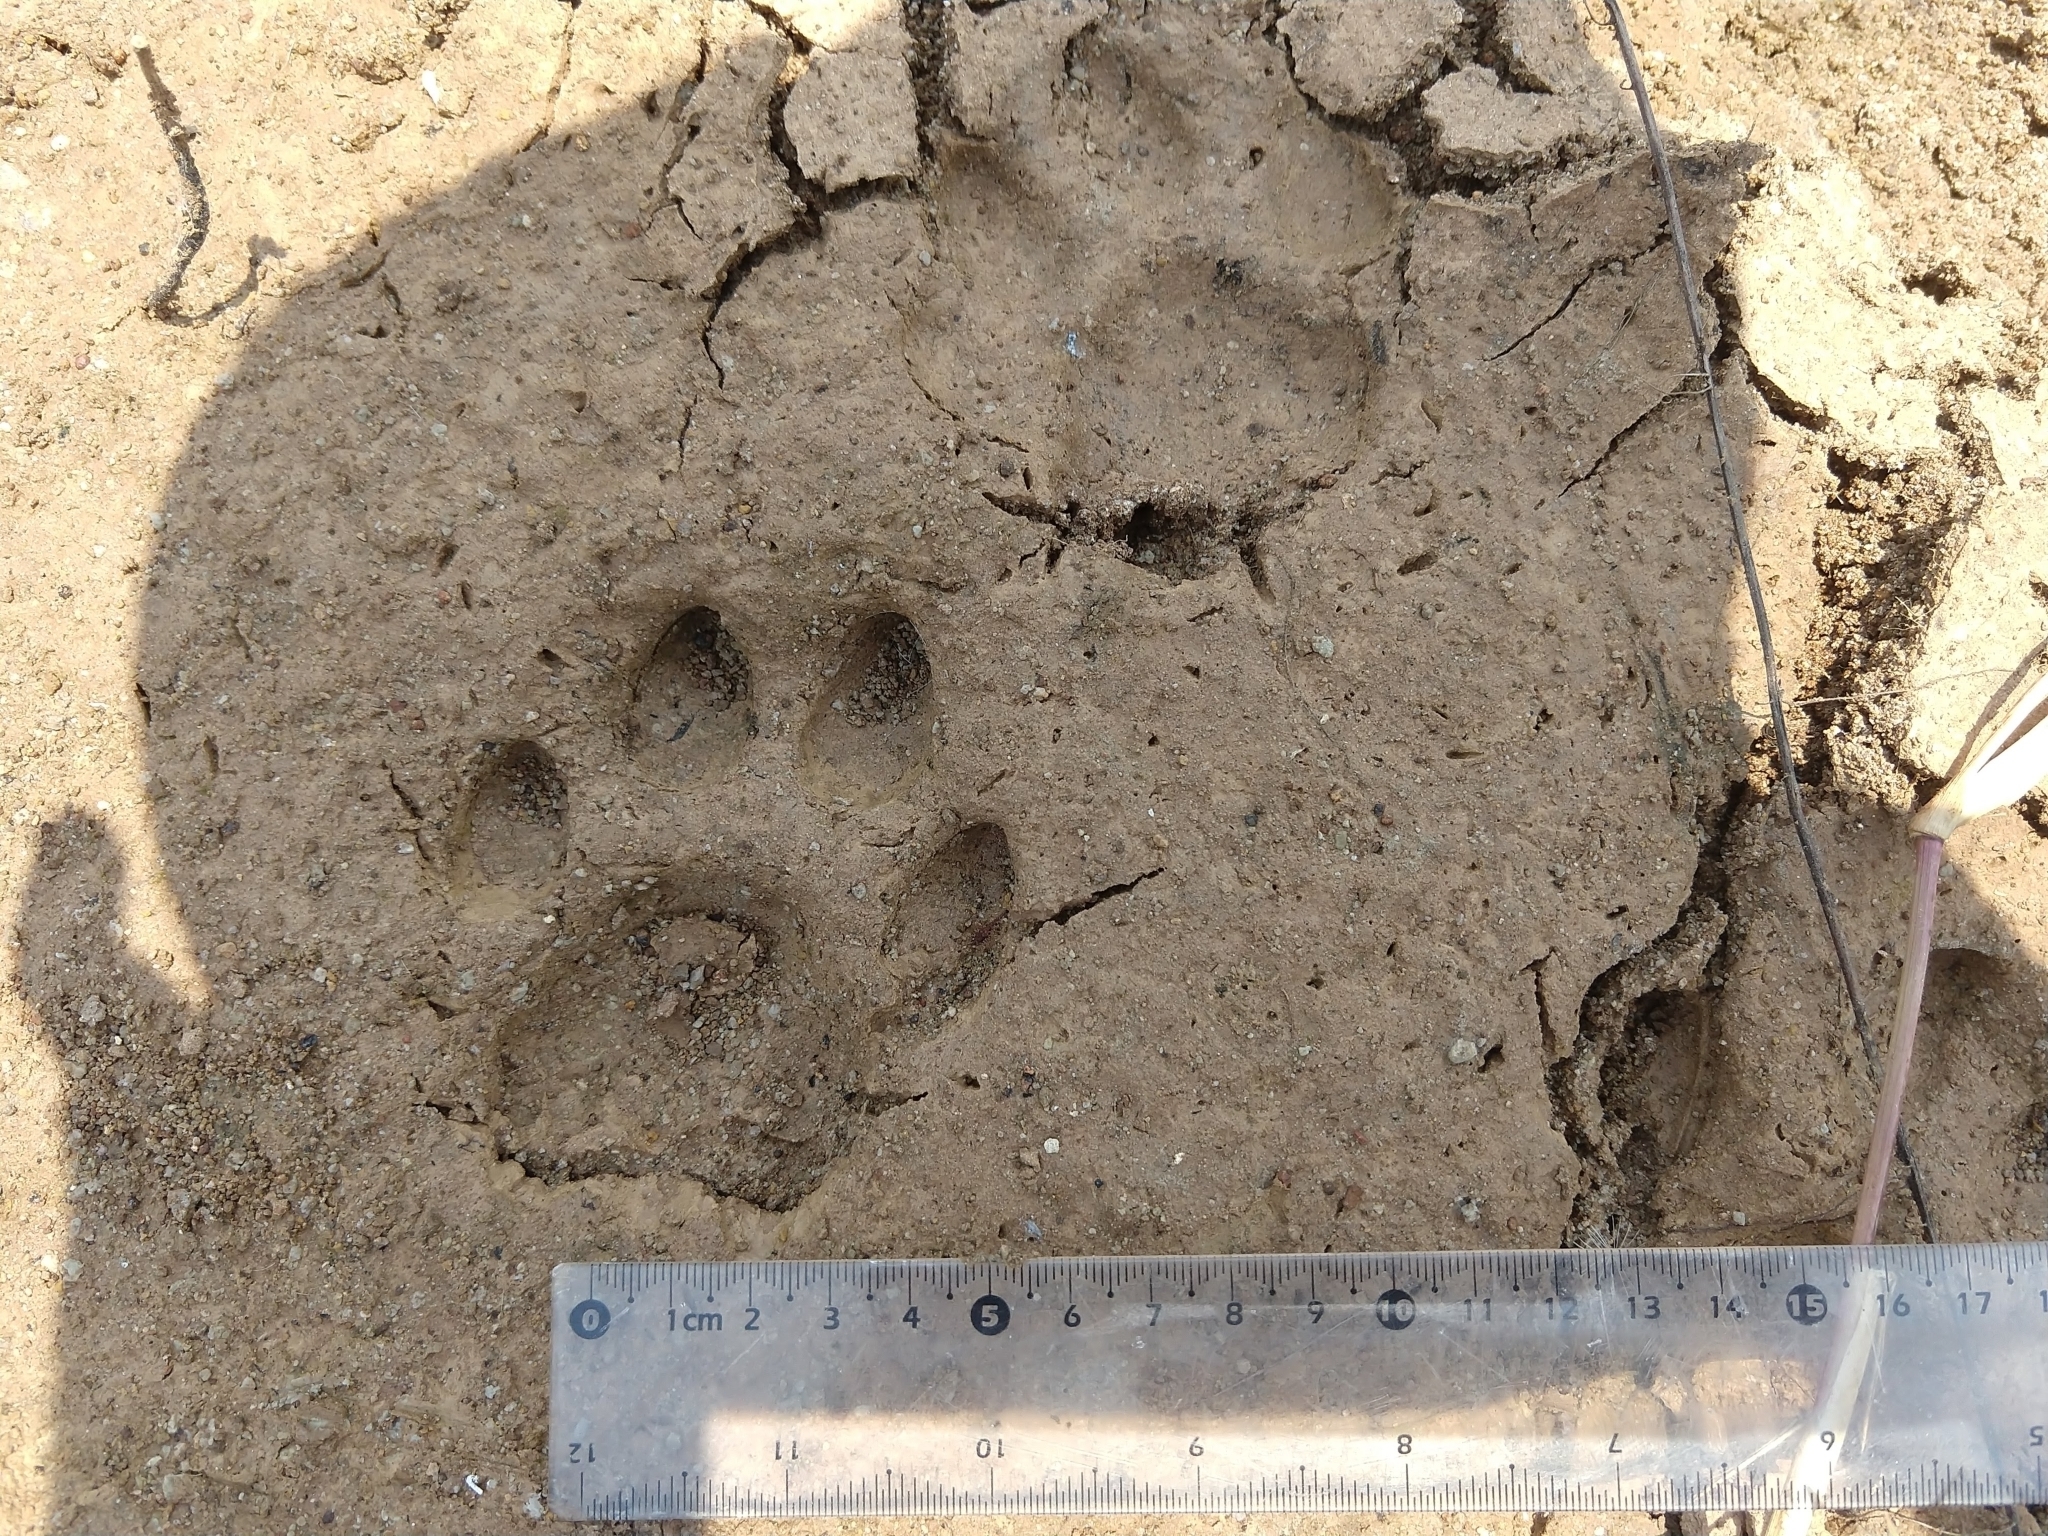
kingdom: Animalia
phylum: Chordata
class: Mammalia
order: Carnivora
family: Felidae
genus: Puma
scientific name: Puma concolor
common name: Puma
